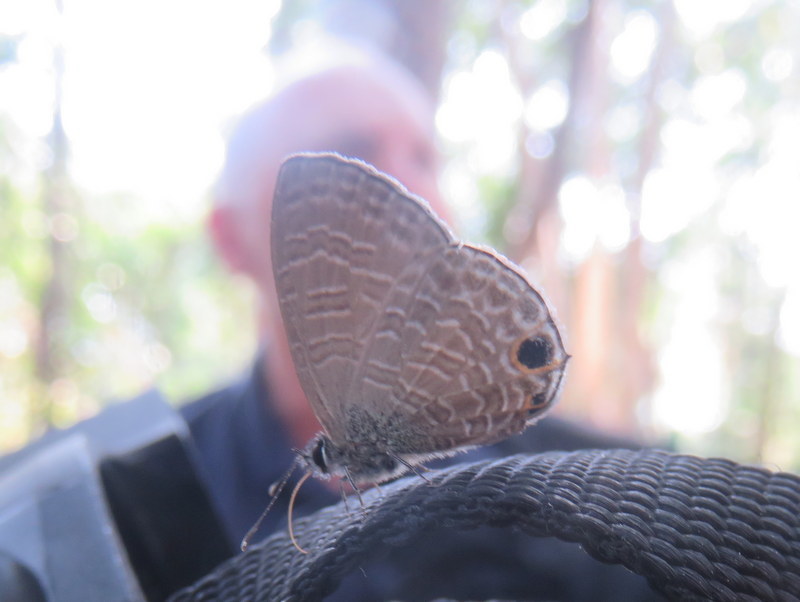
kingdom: Animalia
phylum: Arthropoda
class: Insecta
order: Lepidoptera
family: Lycaenidae
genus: Nacaduba
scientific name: Nacaduba berenice
